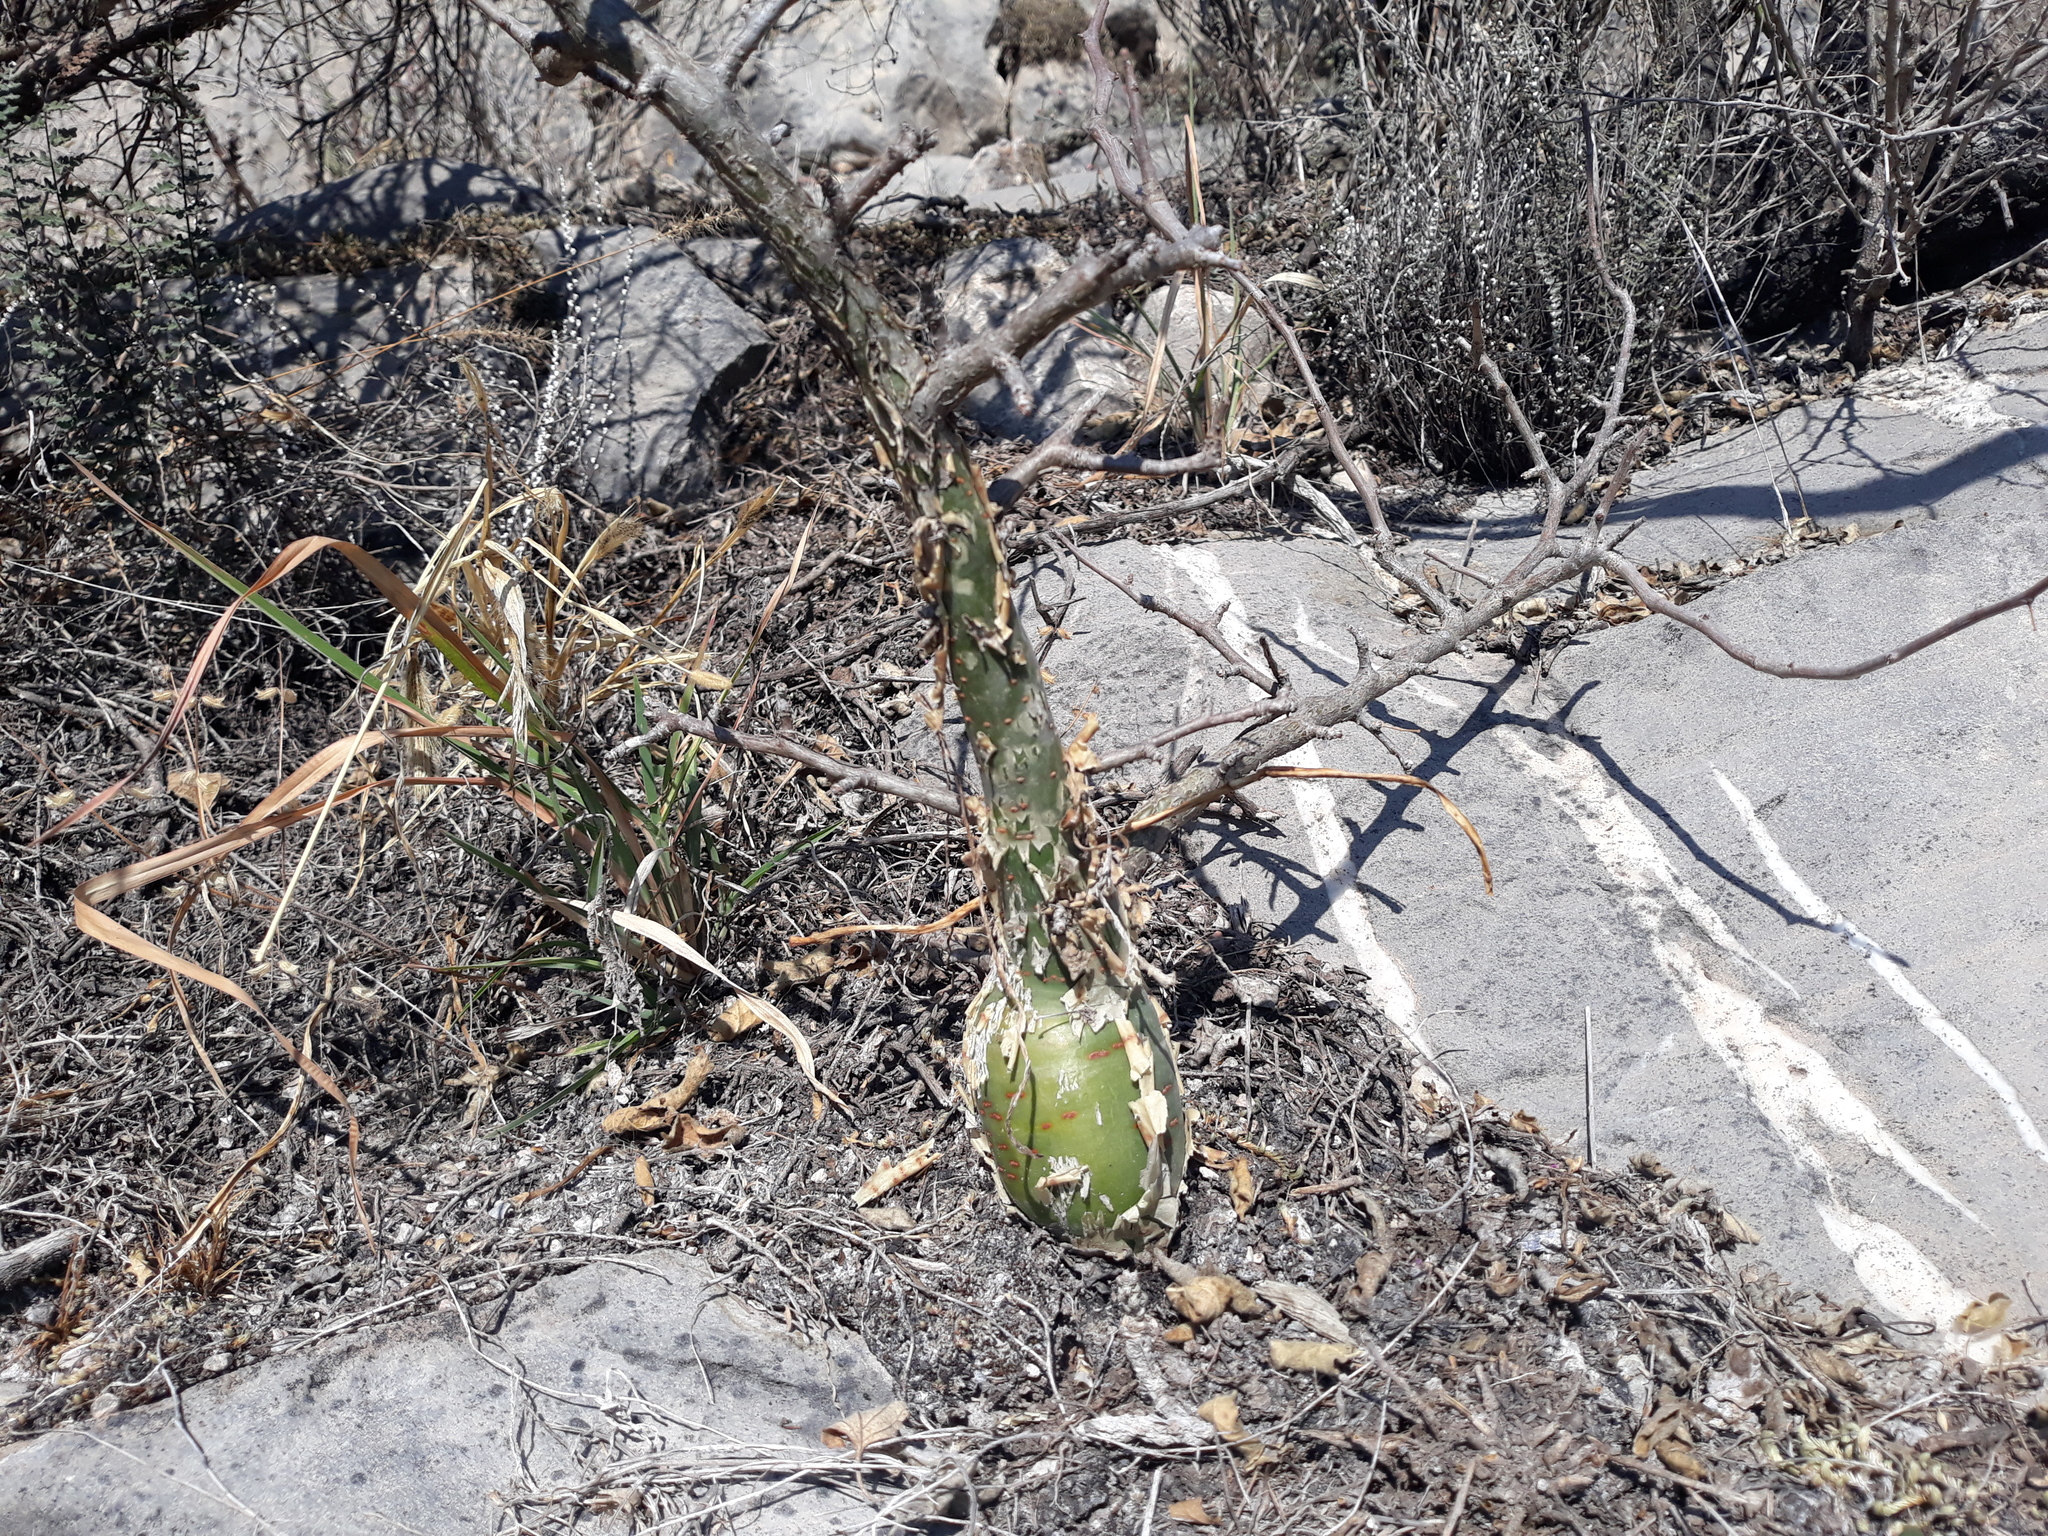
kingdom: Plantae
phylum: Tracheophyta
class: Magnoliopsida
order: Sapindales
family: Burseraceae
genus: Bursera
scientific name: Bursera fagaroides
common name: Elephant tree
